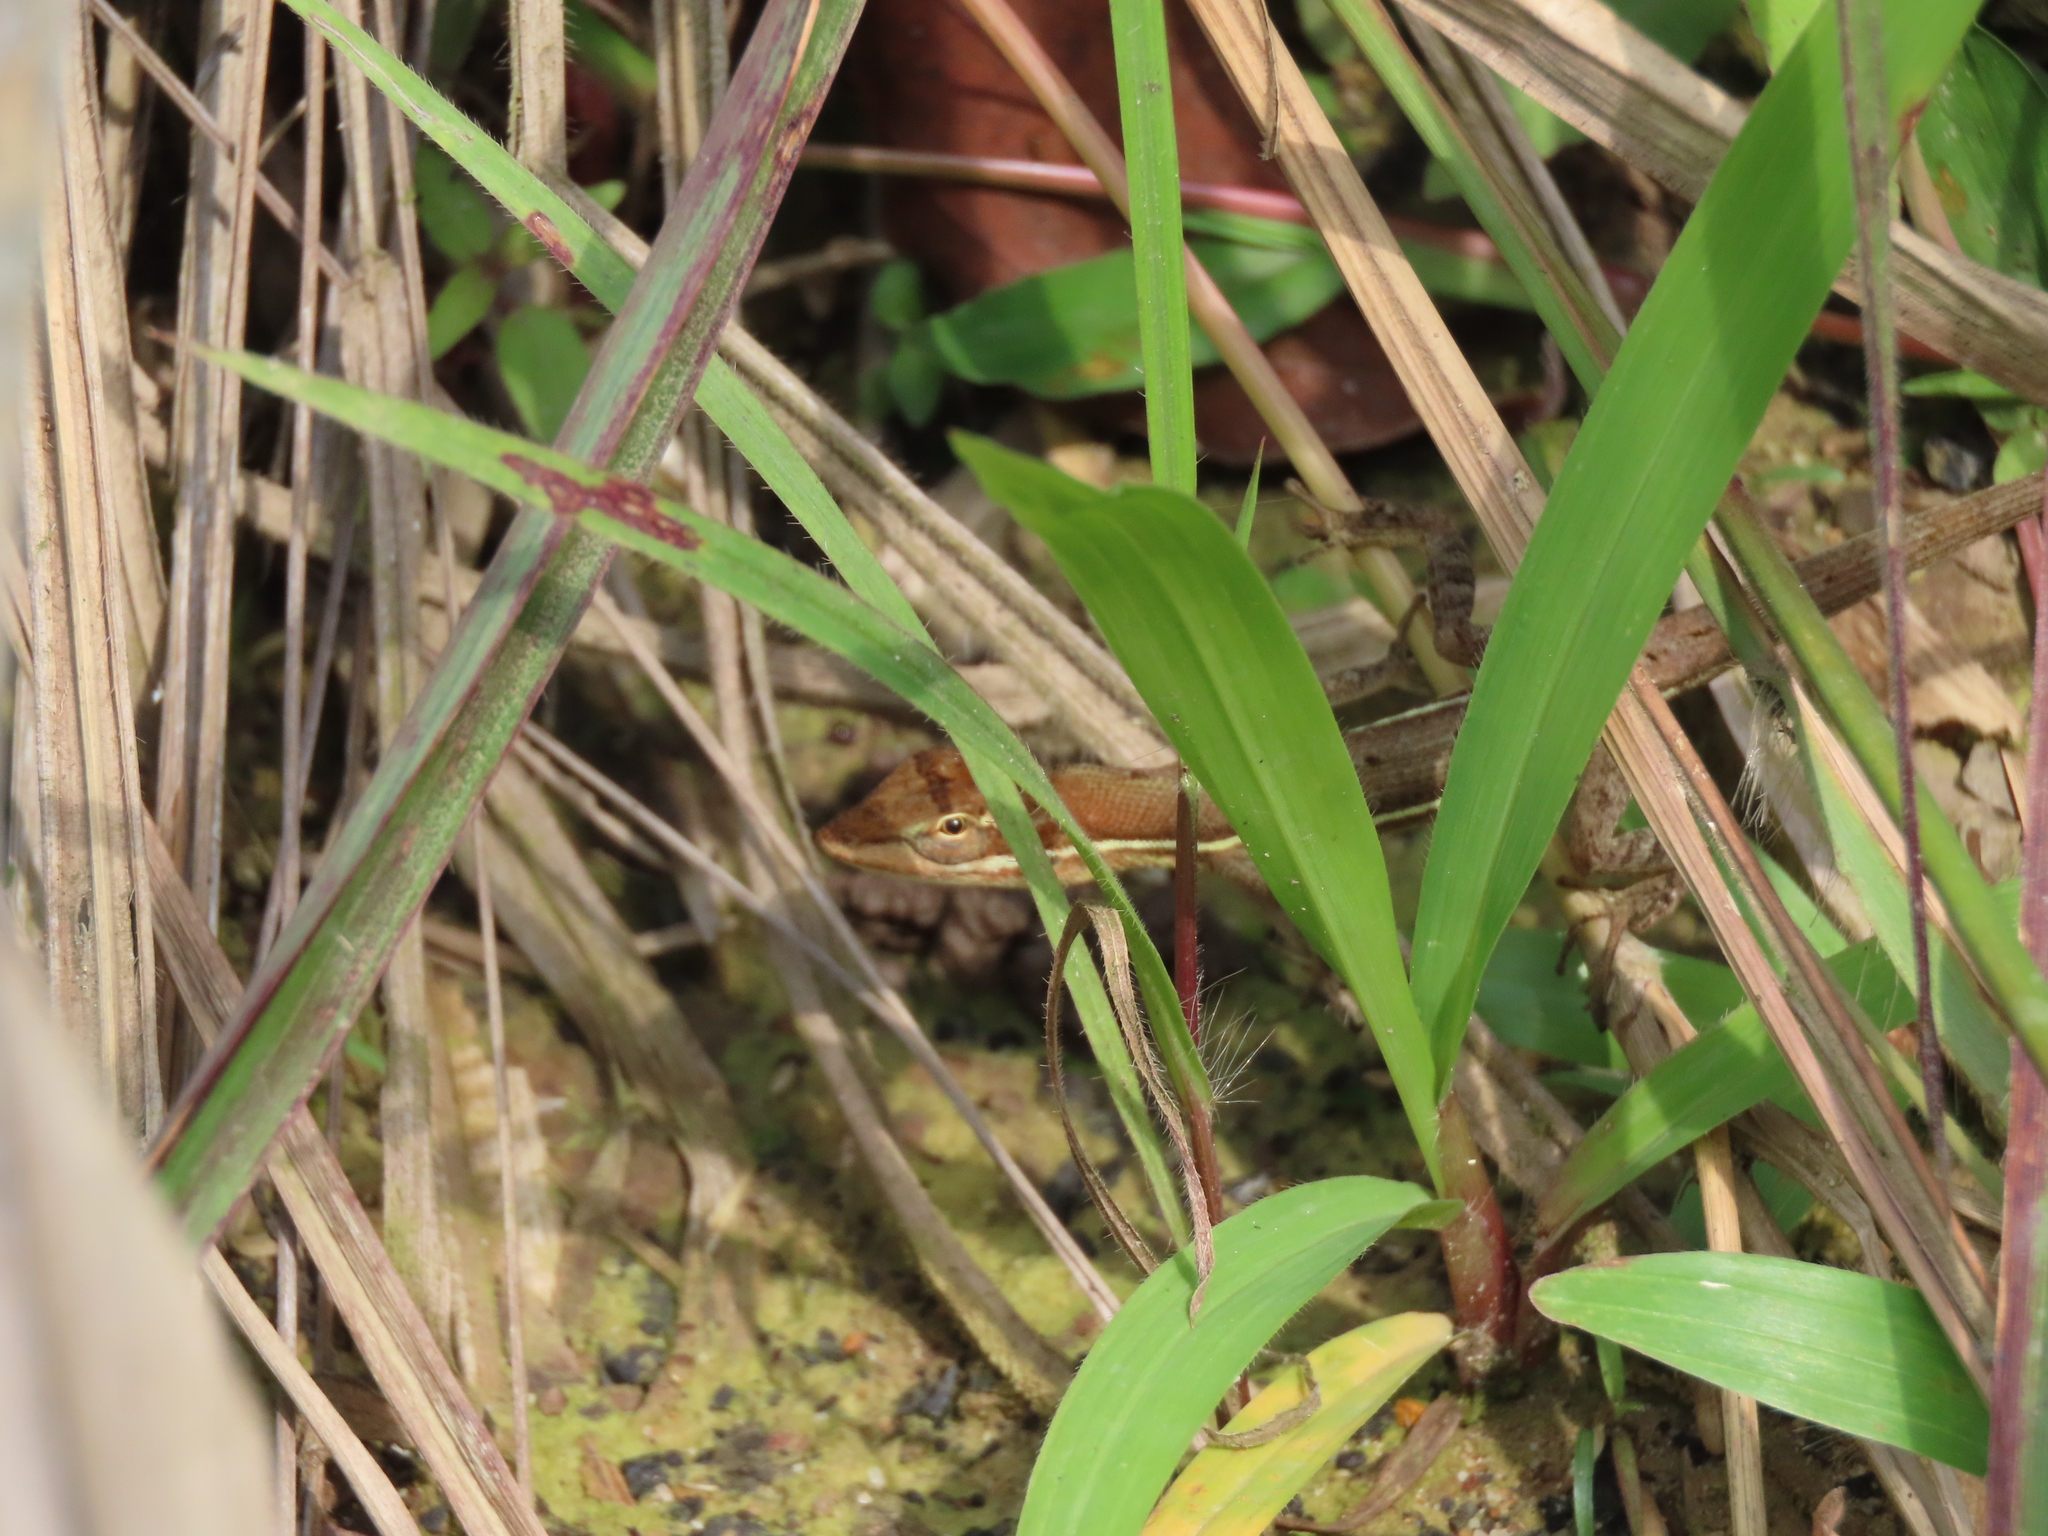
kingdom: Animalia
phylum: Chordata
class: Squamata
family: Dactyloidae
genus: Anolis
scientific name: Anolis auratus
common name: Grass anole
